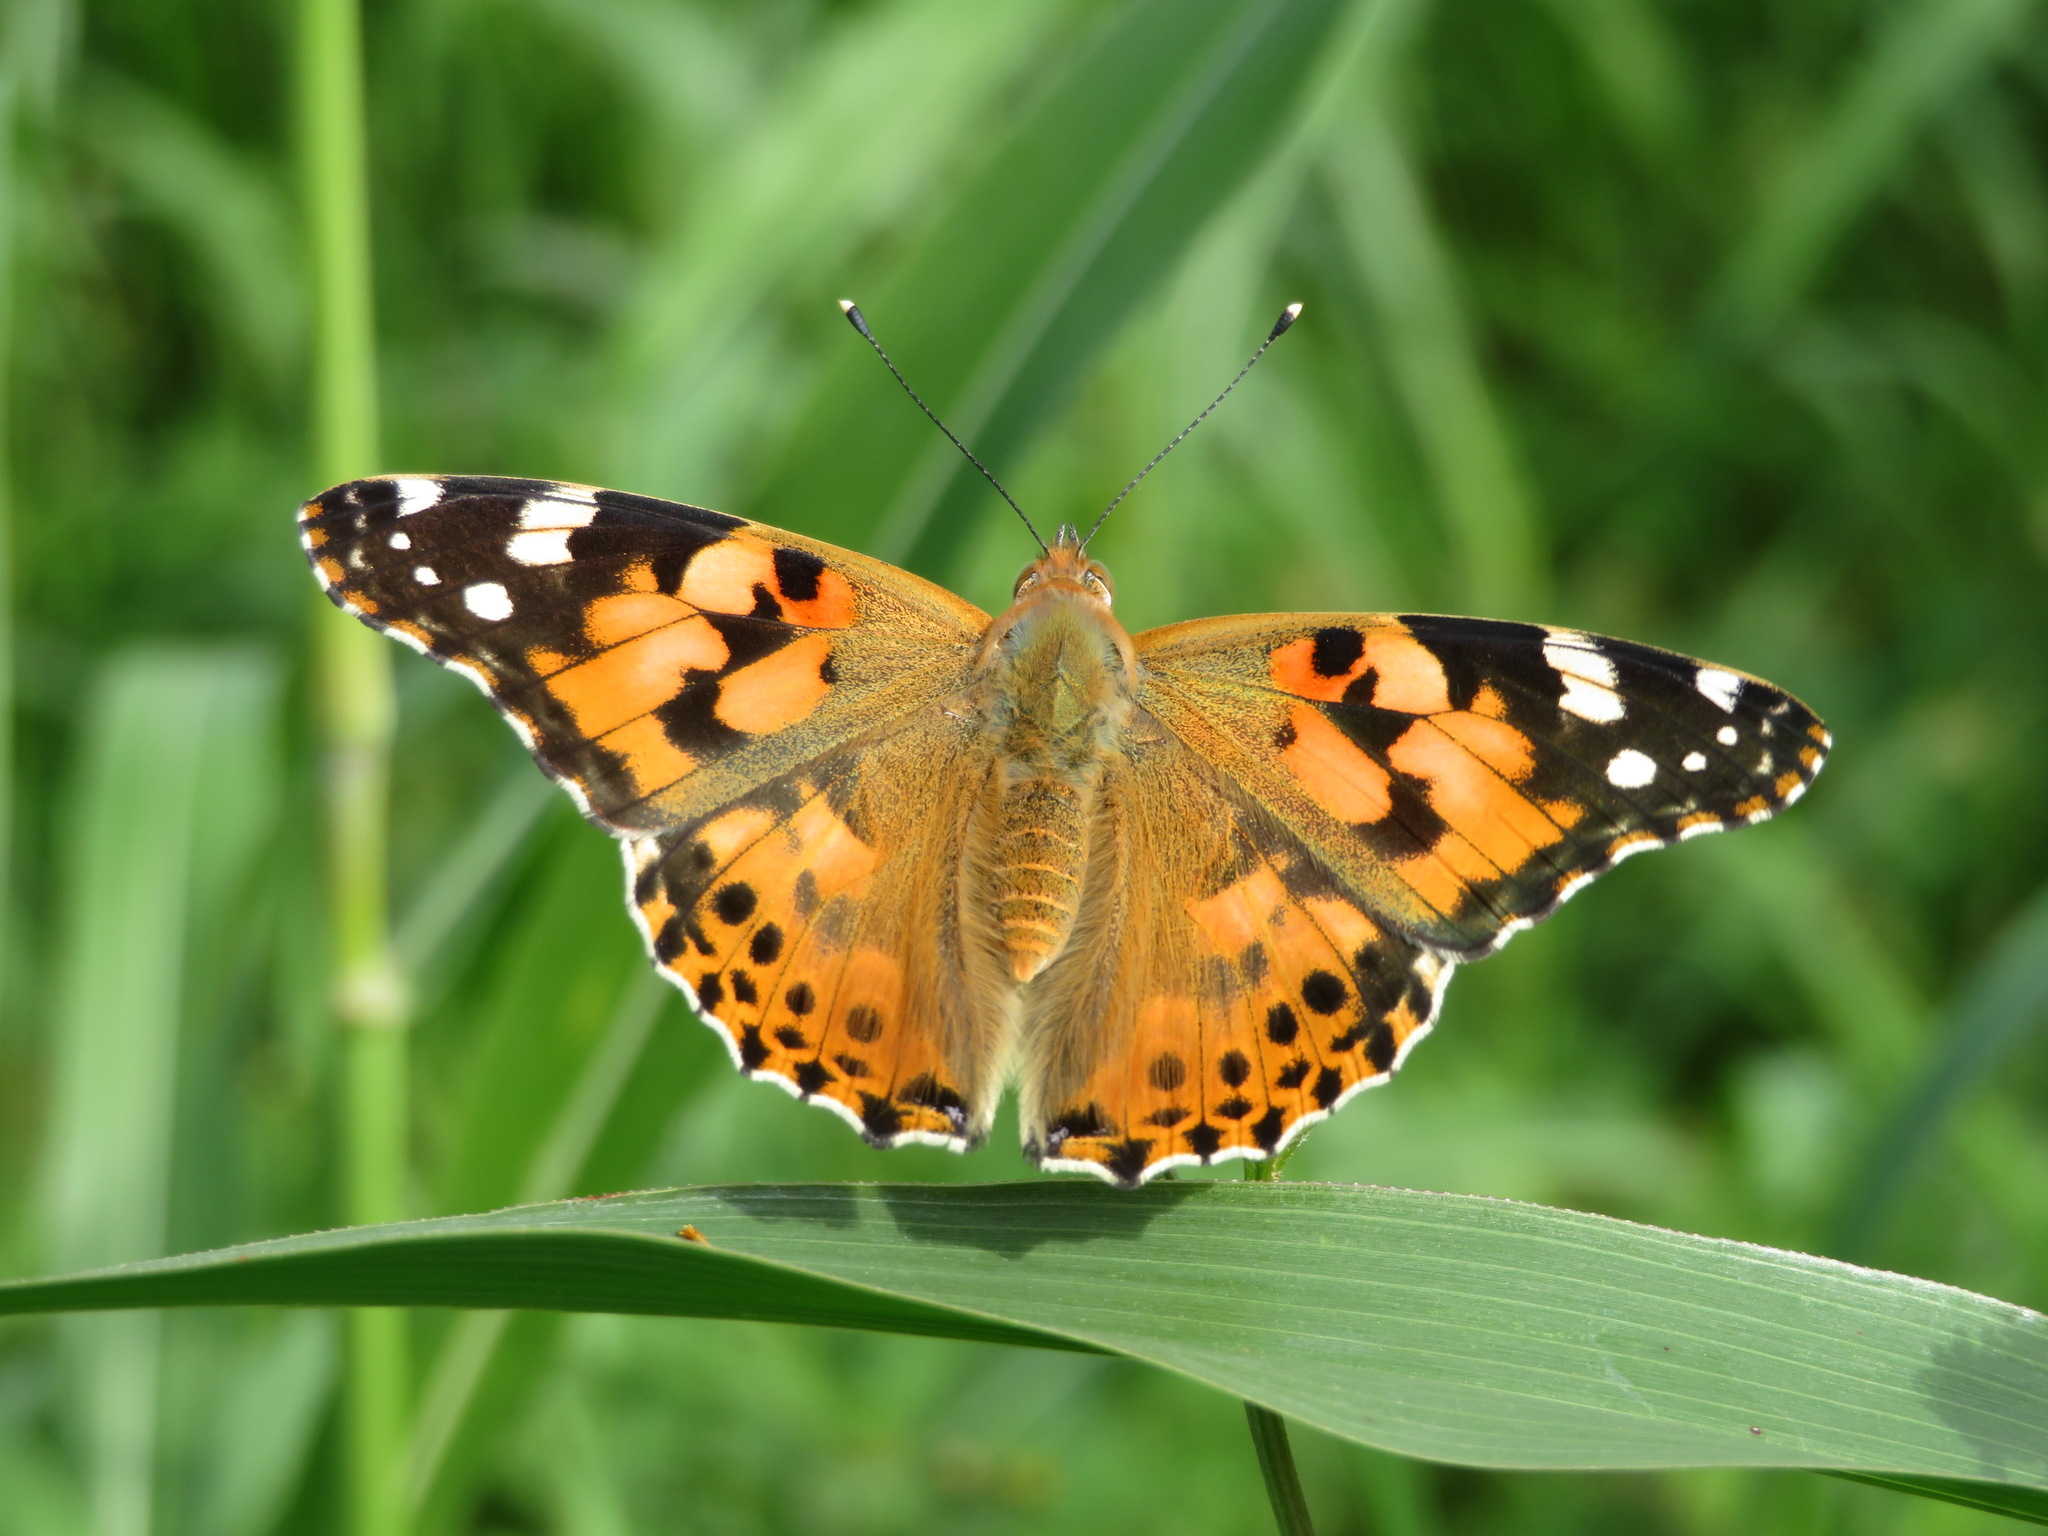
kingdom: Animalia
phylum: Arthropoda
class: Insecta
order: Lepidoptera
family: Nymphalidae
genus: Vanessa
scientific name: Vanessa cardui
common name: Painted lady
